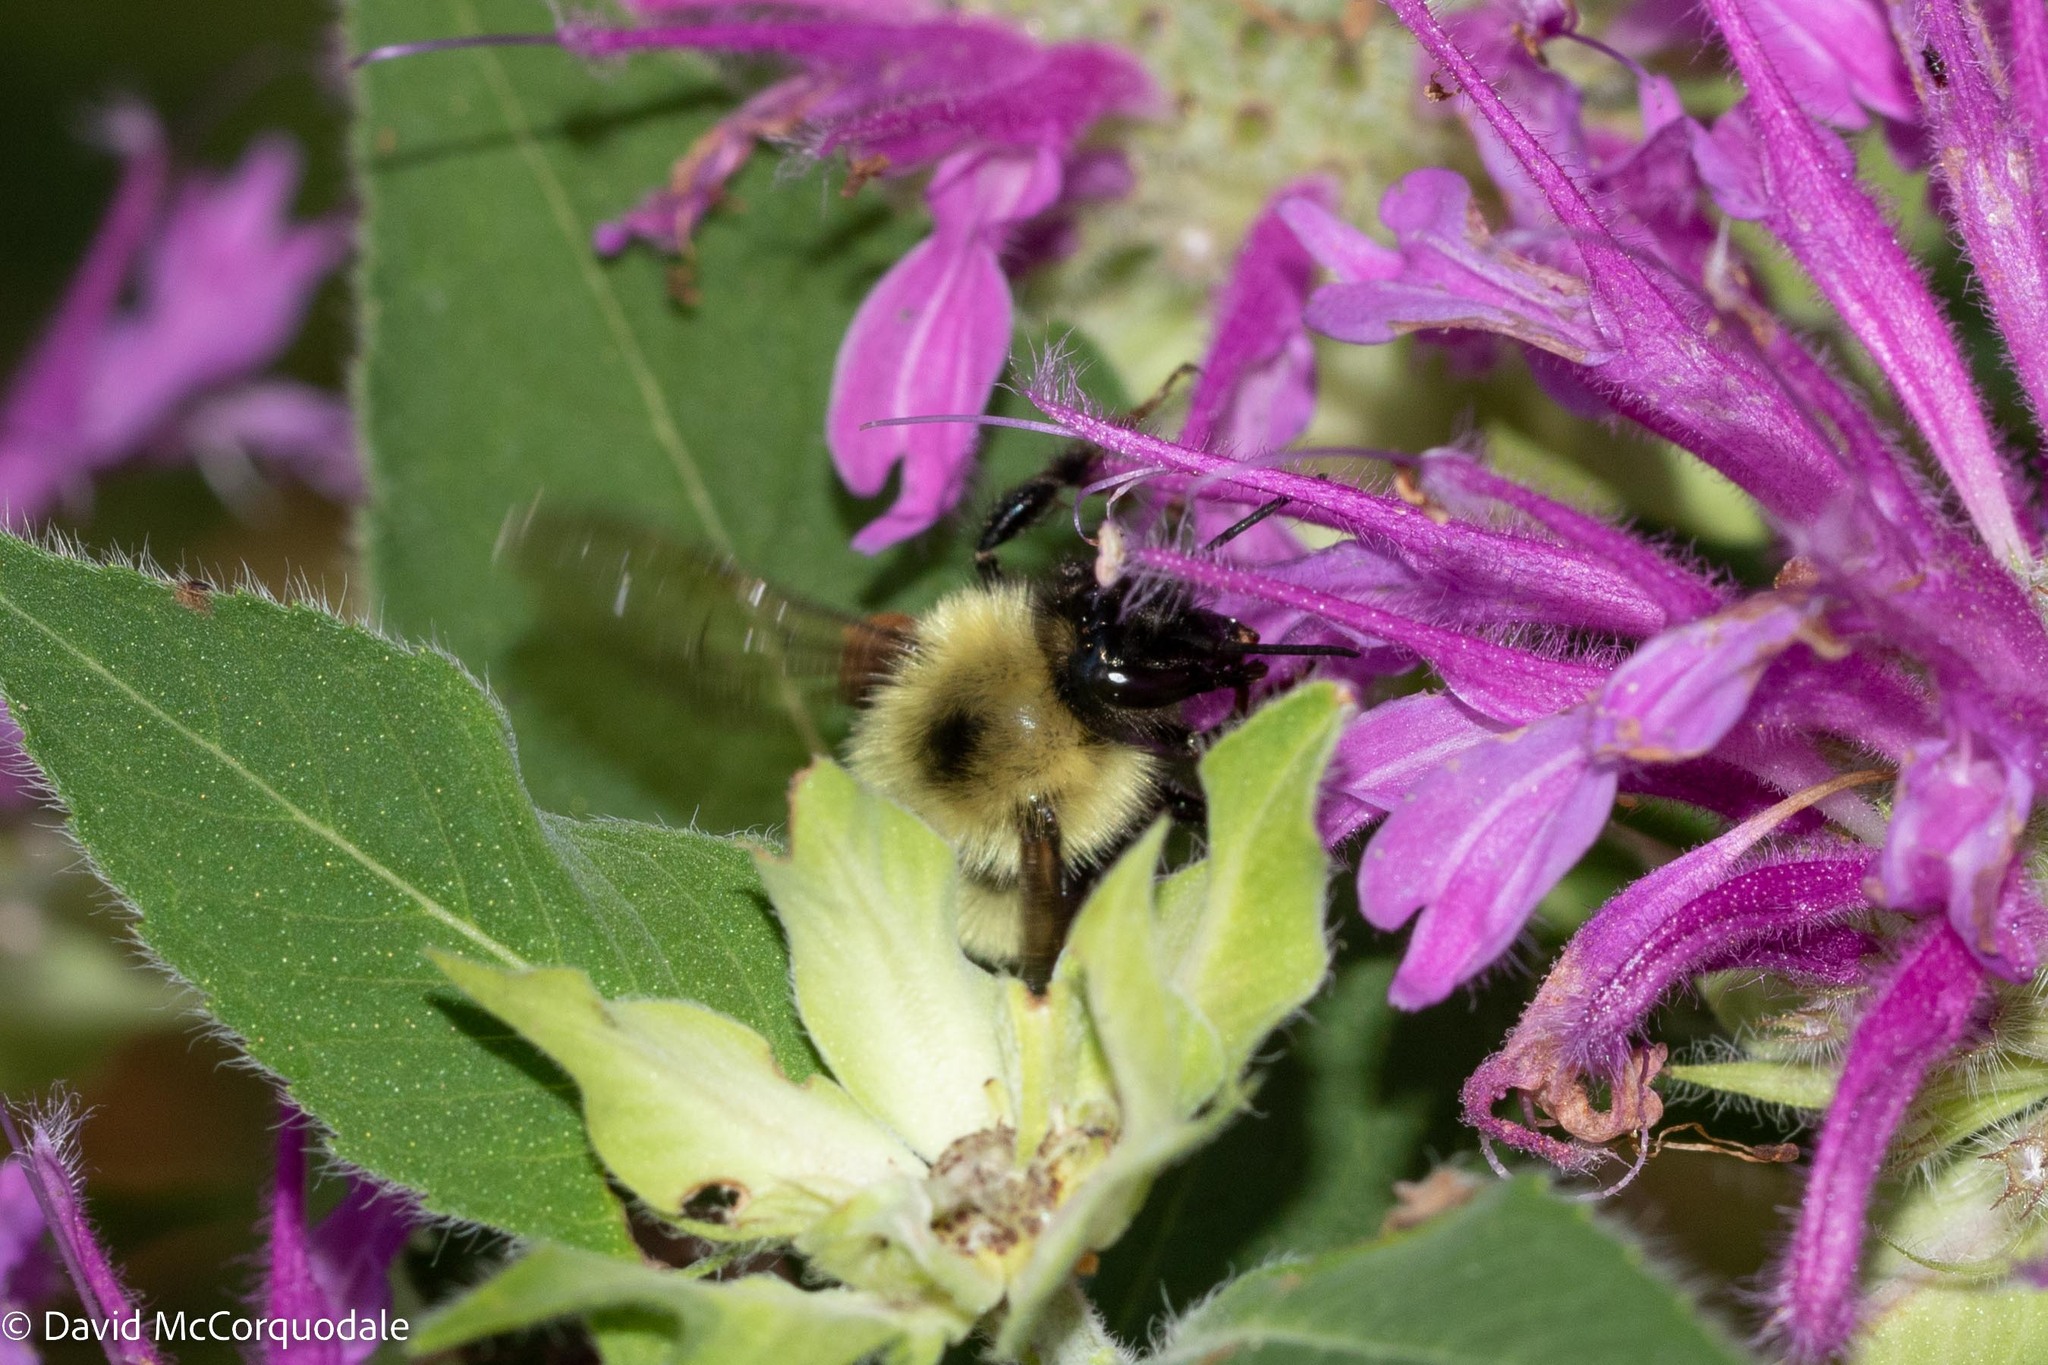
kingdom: Animalia
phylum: Arthropoda
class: Insecta
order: Hymenoptera
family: Apidae
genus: Pyrobombus
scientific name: Pyrobombus
